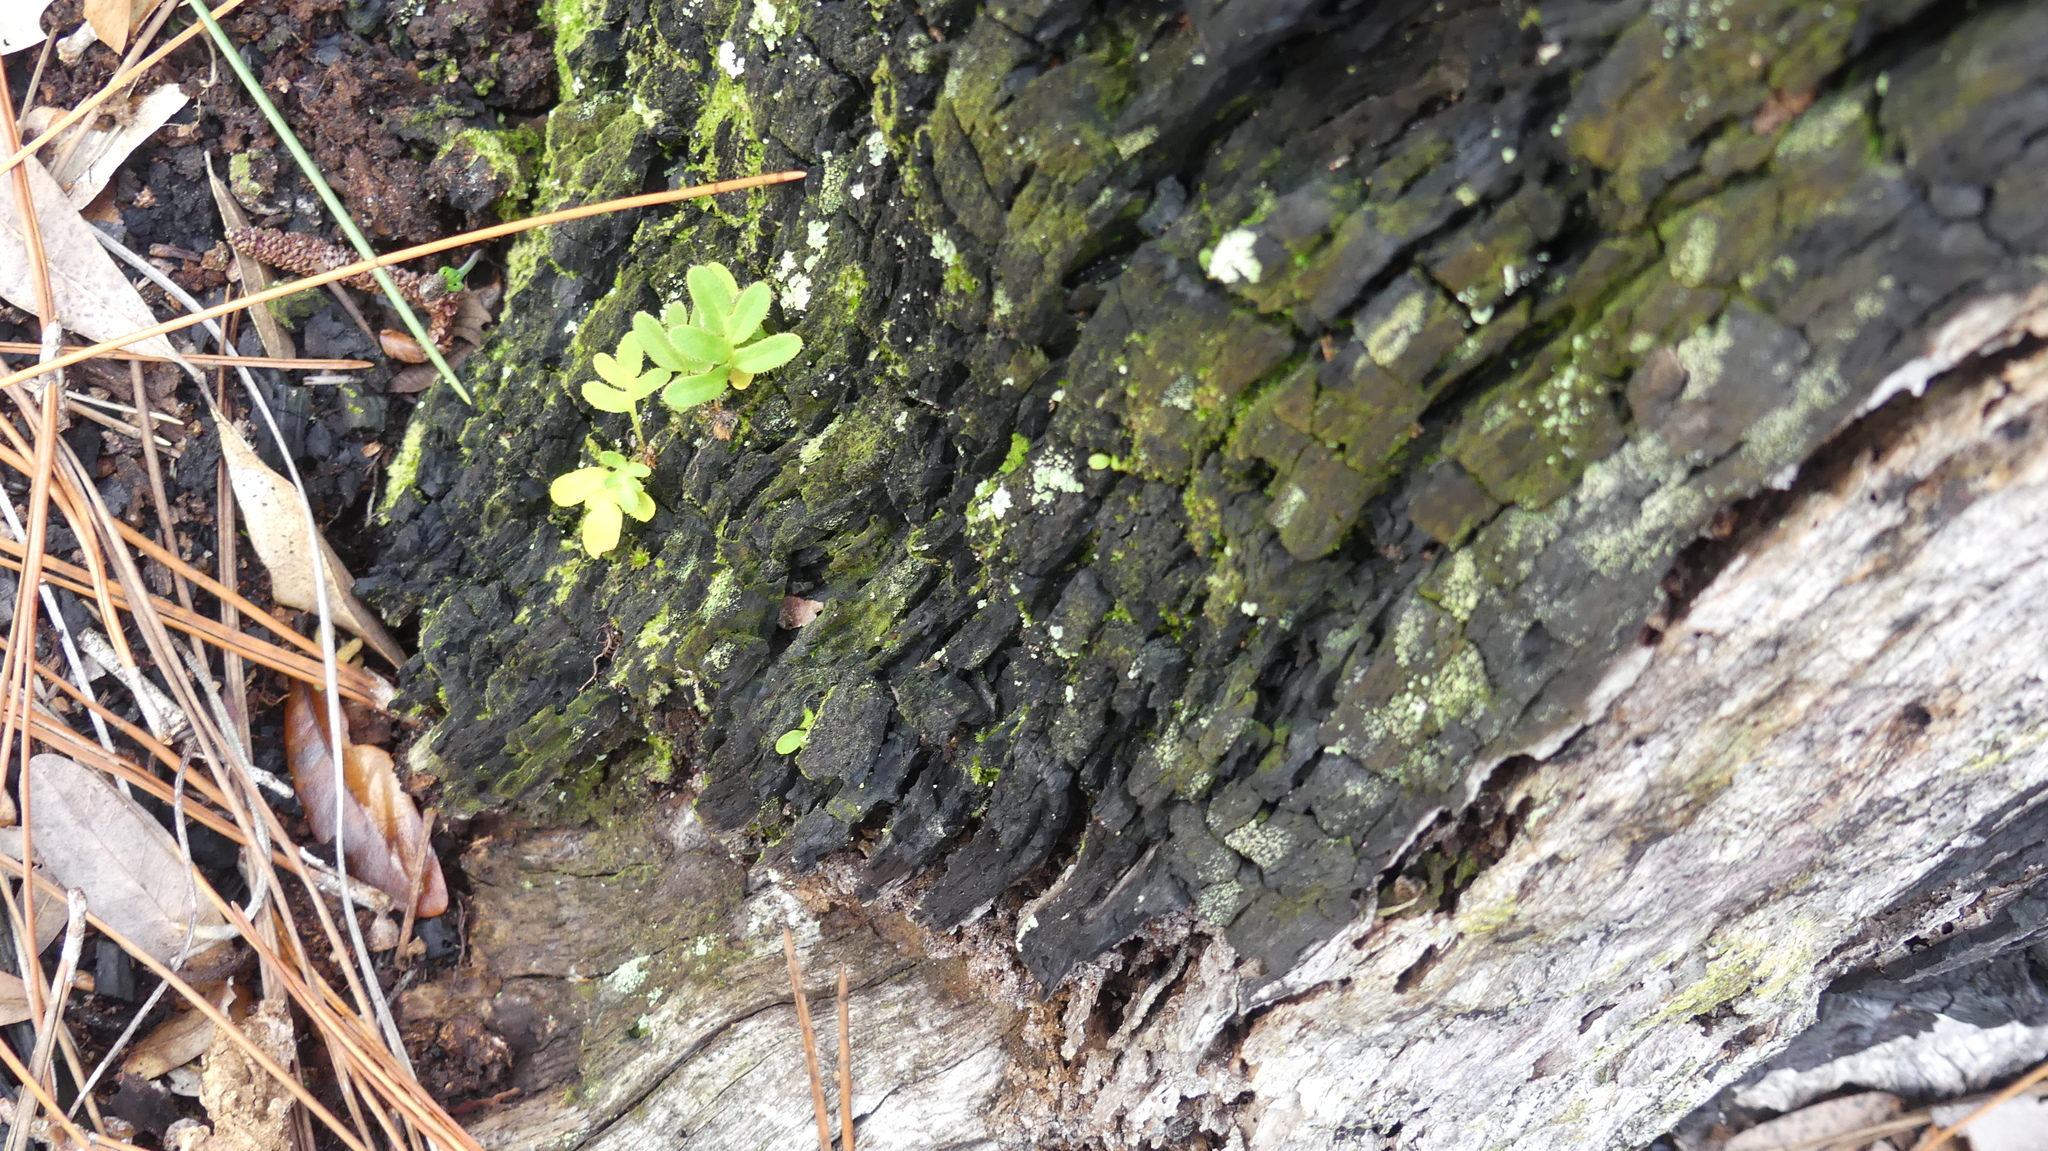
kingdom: Plantae
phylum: Tracheophyta
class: Polypodiopsida
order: Polypodiales
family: Polypodiaceae
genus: Pleopeltis
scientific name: Pleopeltis michauxiana
